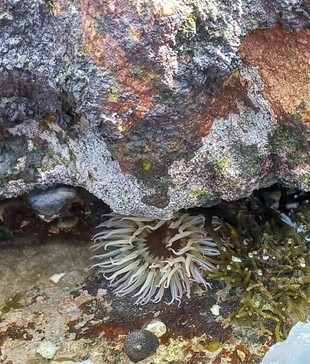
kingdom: Animalia
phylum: Cnidaria
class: Anthozoa
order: Actiniaria
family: Actiniidae
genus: Anthopleura
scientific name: Anthopleura michaelseni
